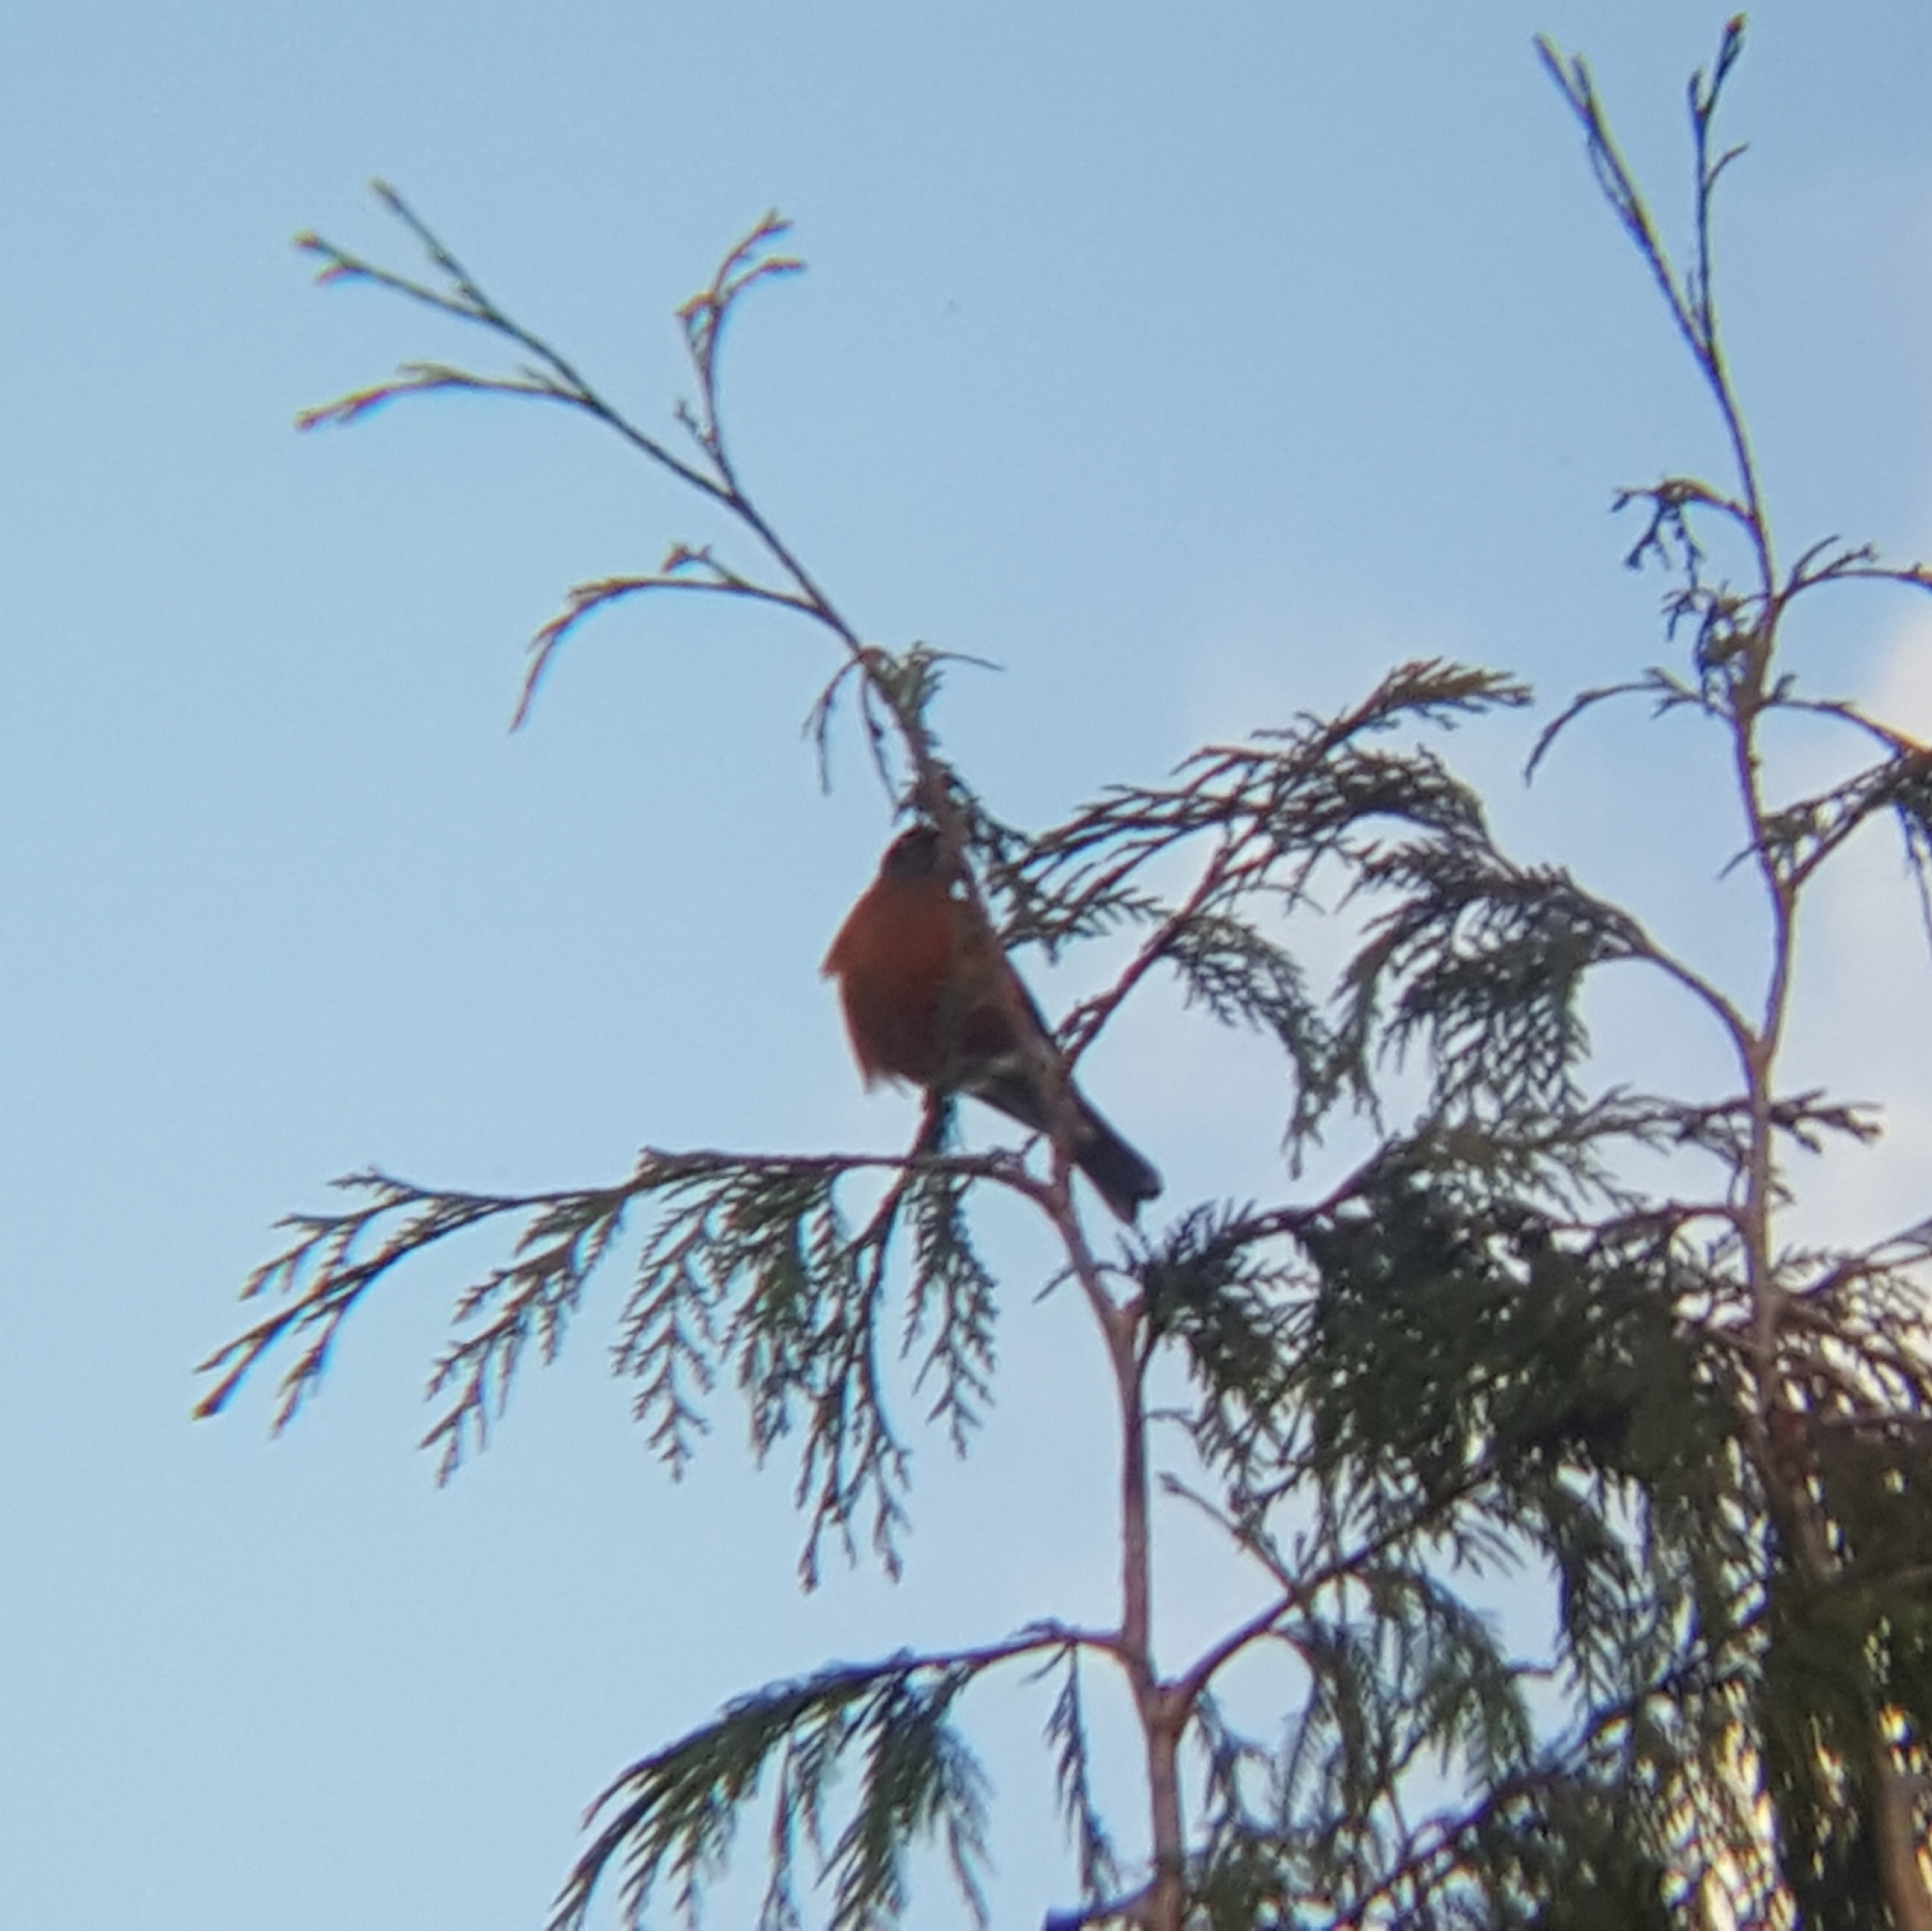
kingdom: Animalia
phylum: Chordata
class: Aves
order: Passeriformes
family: Turdidae
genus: Turdus
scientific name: Turdus migratorius
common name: American robin
